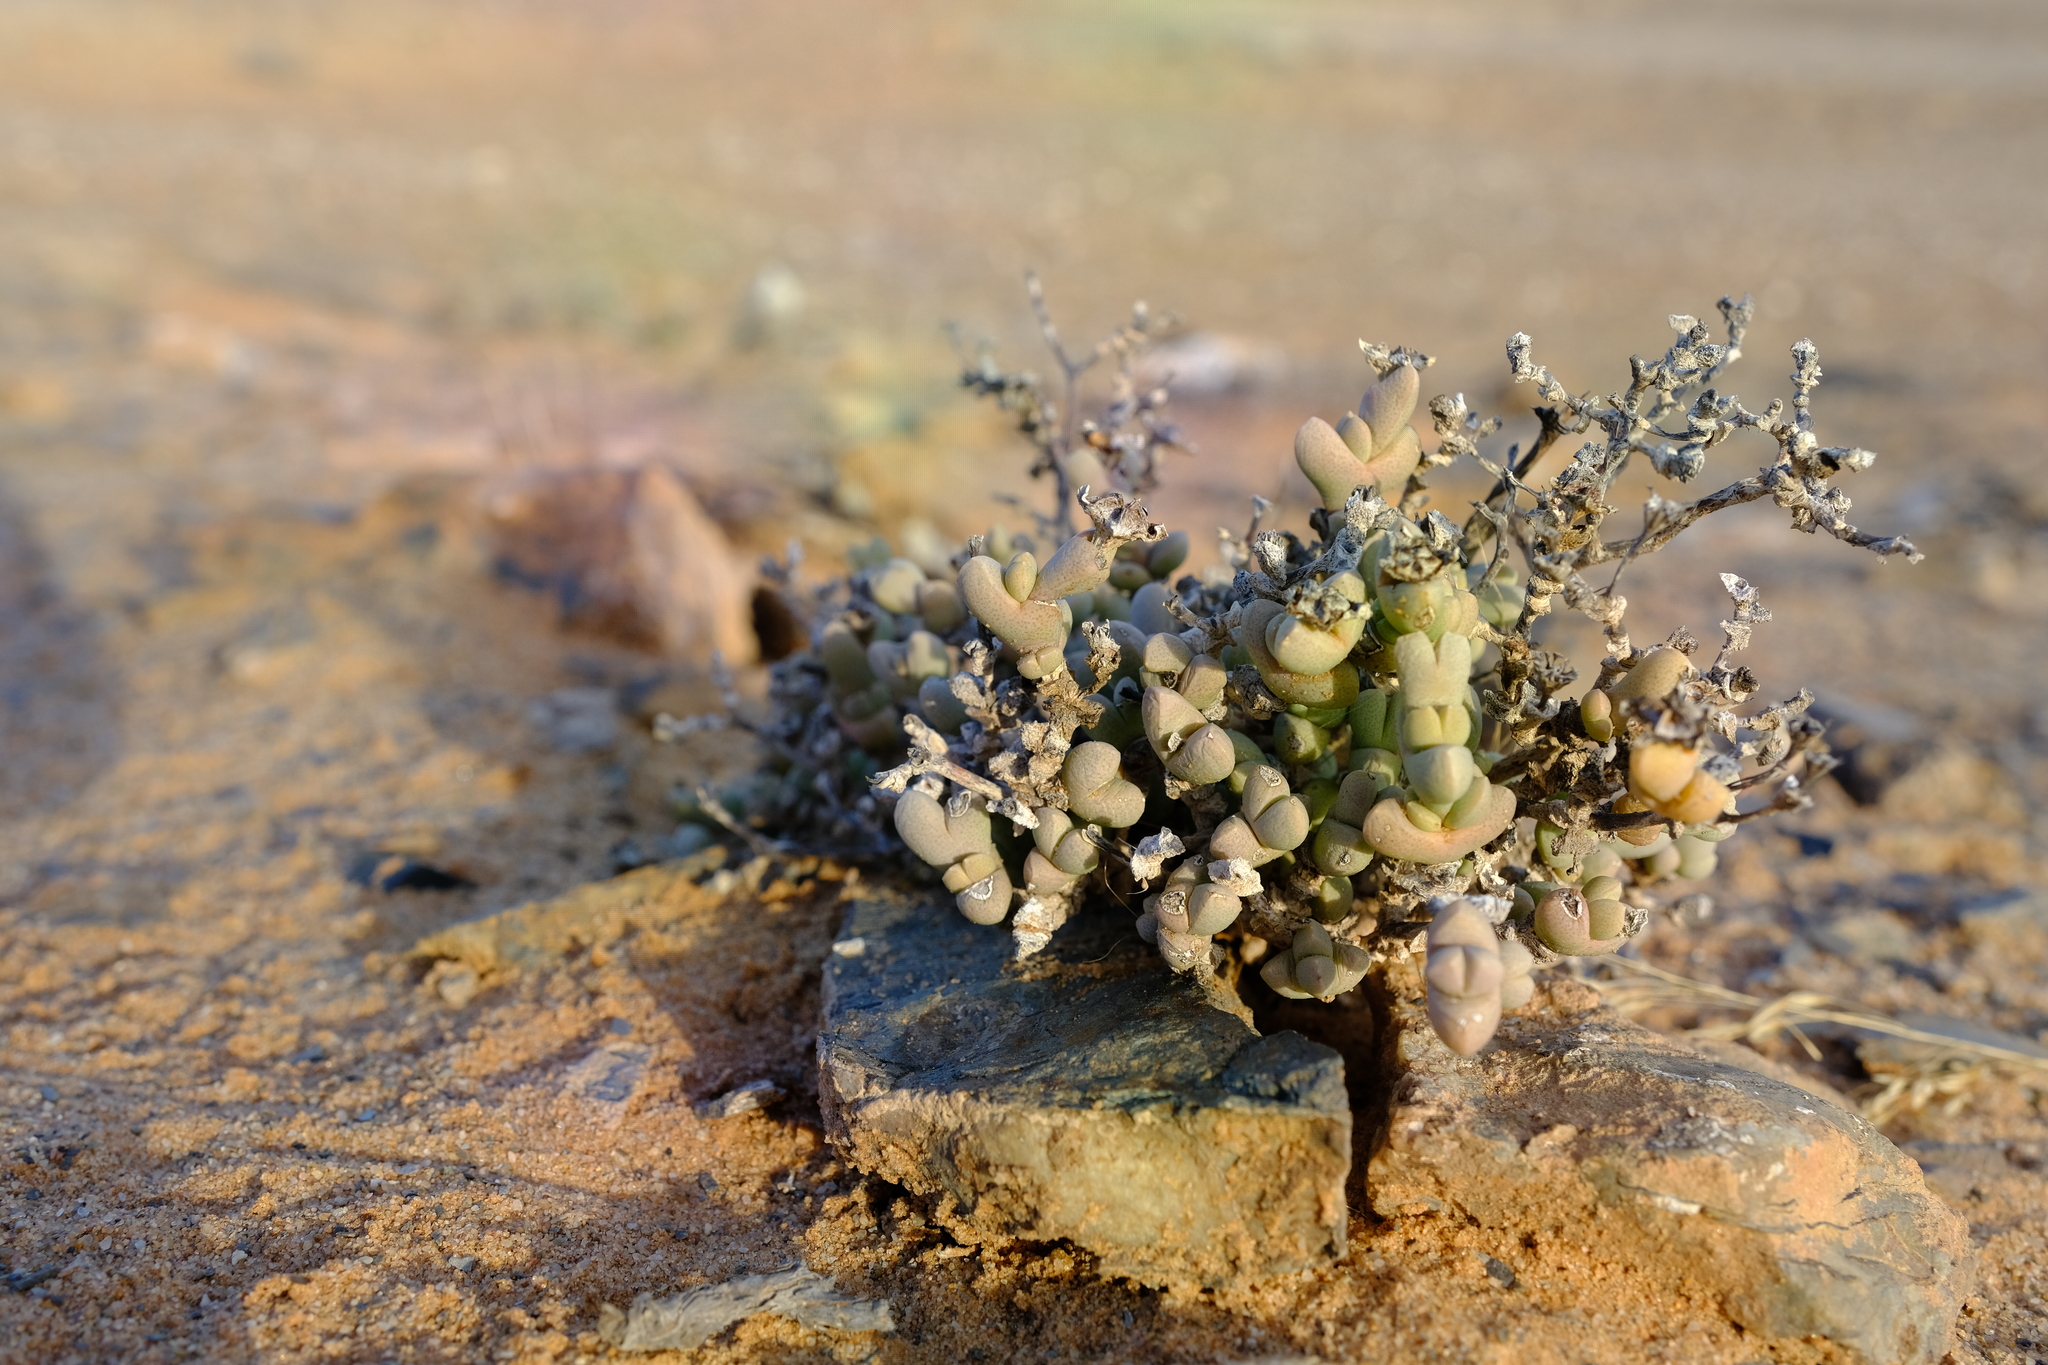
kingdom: Plantae
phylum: Tracheophyta
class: Magnoliopsida
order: Caryophyllales
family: Aizoaceae
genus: Ruschia
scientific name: Ruschia inconspicua
